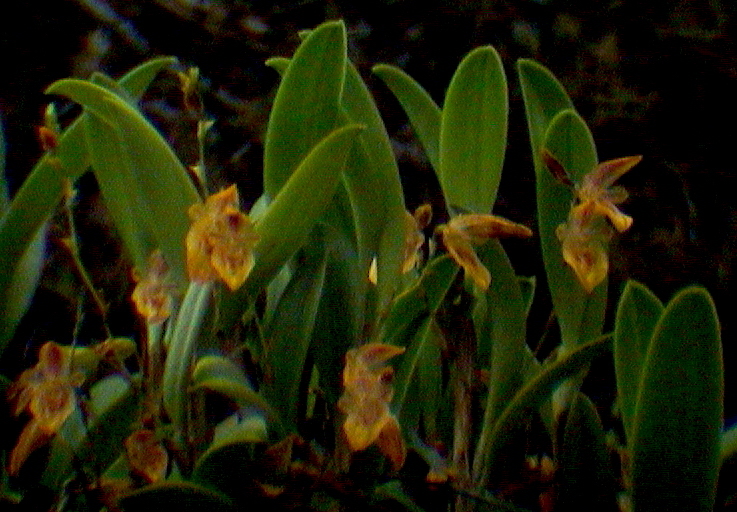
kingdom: Plantae
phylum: Tracheophyta
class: Liliopsida
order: Asparagales
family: Orchidaceae
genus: Andinia
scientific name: Andinia spiralis
